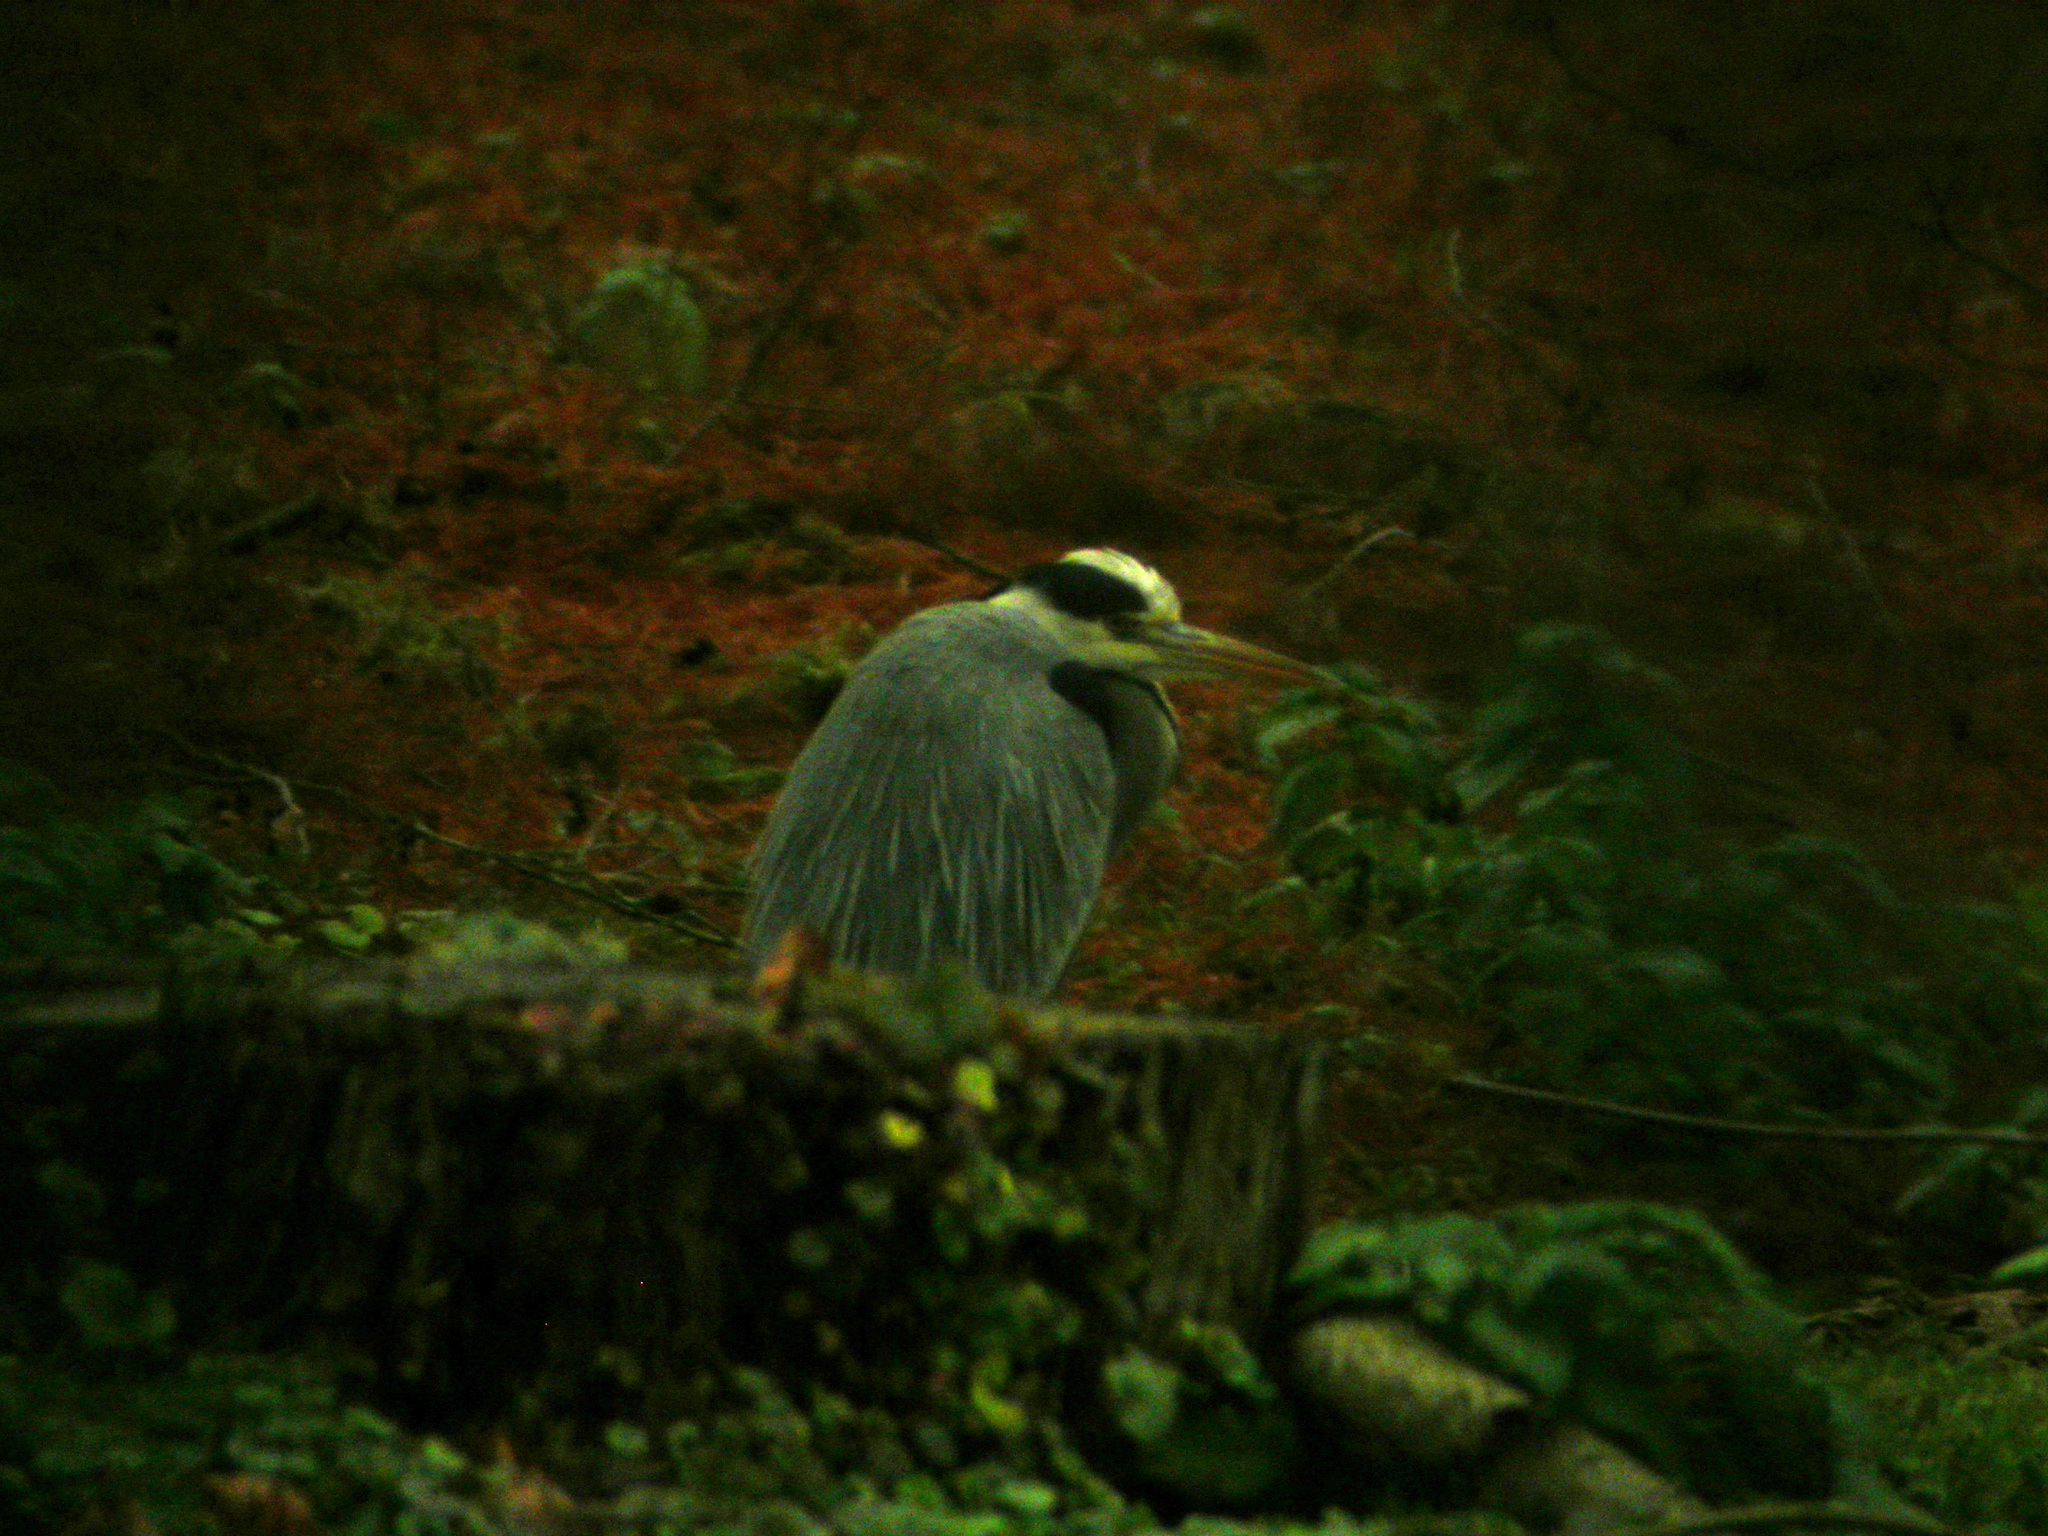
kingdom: Animalia
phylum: Chordata
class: Aves
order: Pelecaniformes
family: Ardeidae
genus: Ardea
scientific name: Ardea cinerea
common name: Grey heron
